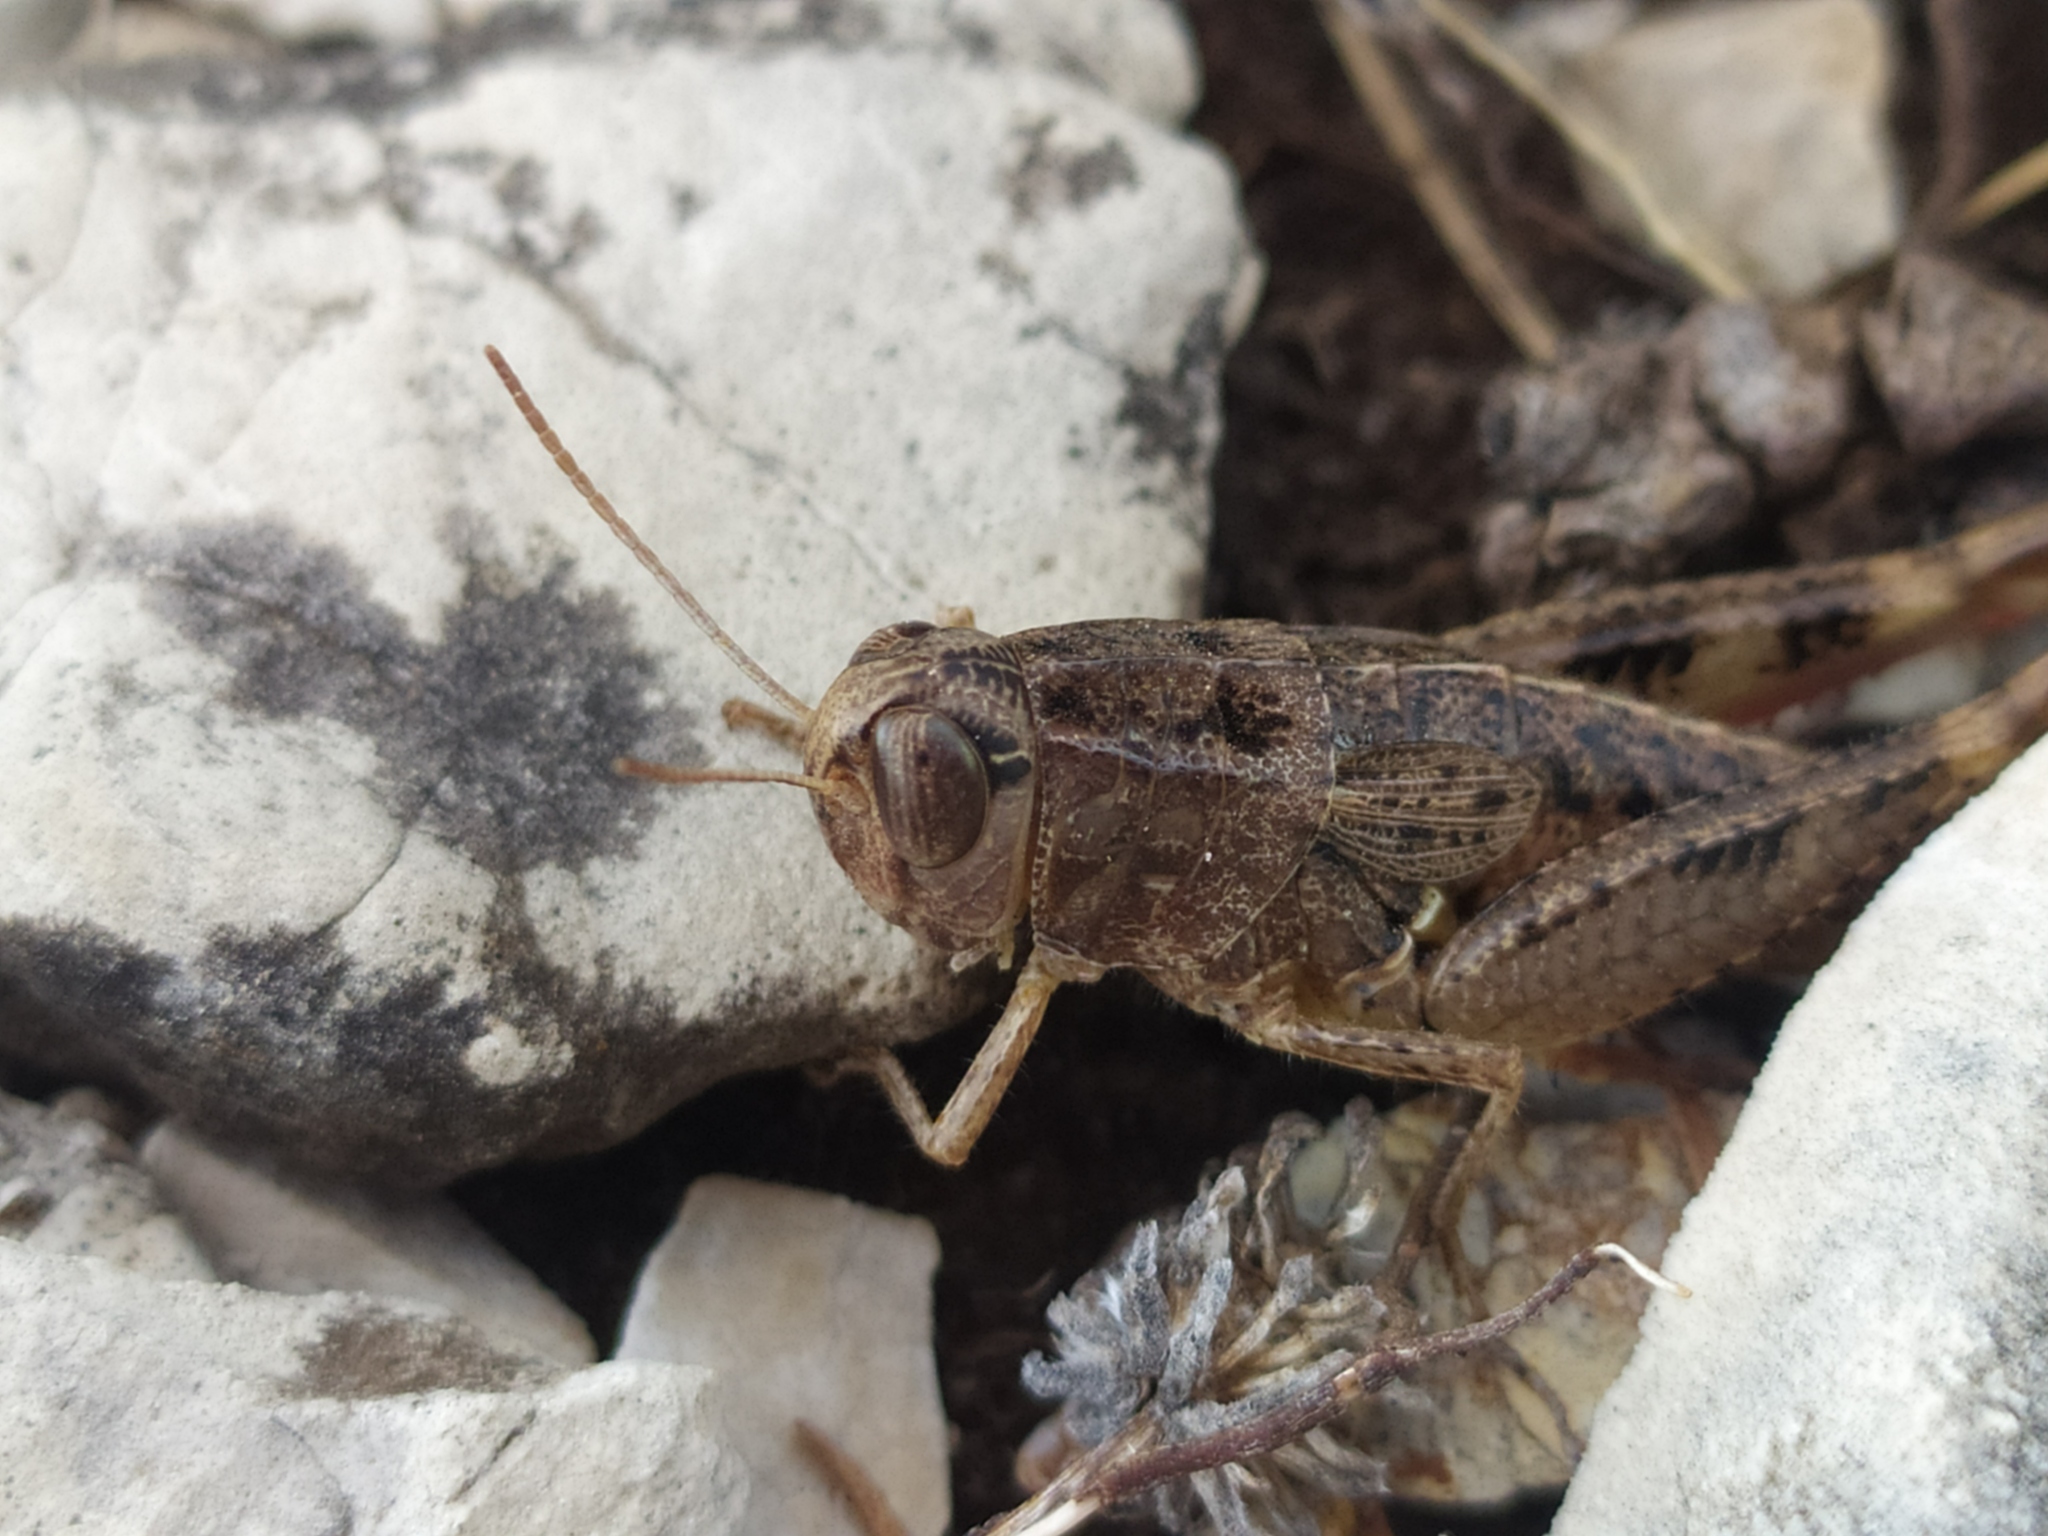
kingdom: Animalia
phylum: Arthropoda
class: Insecta
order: Orthoptera
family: Acrididae
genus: Paracaloptenus
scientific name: Paracaloptenus cristatus
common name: Istrian pincer grasshopper
